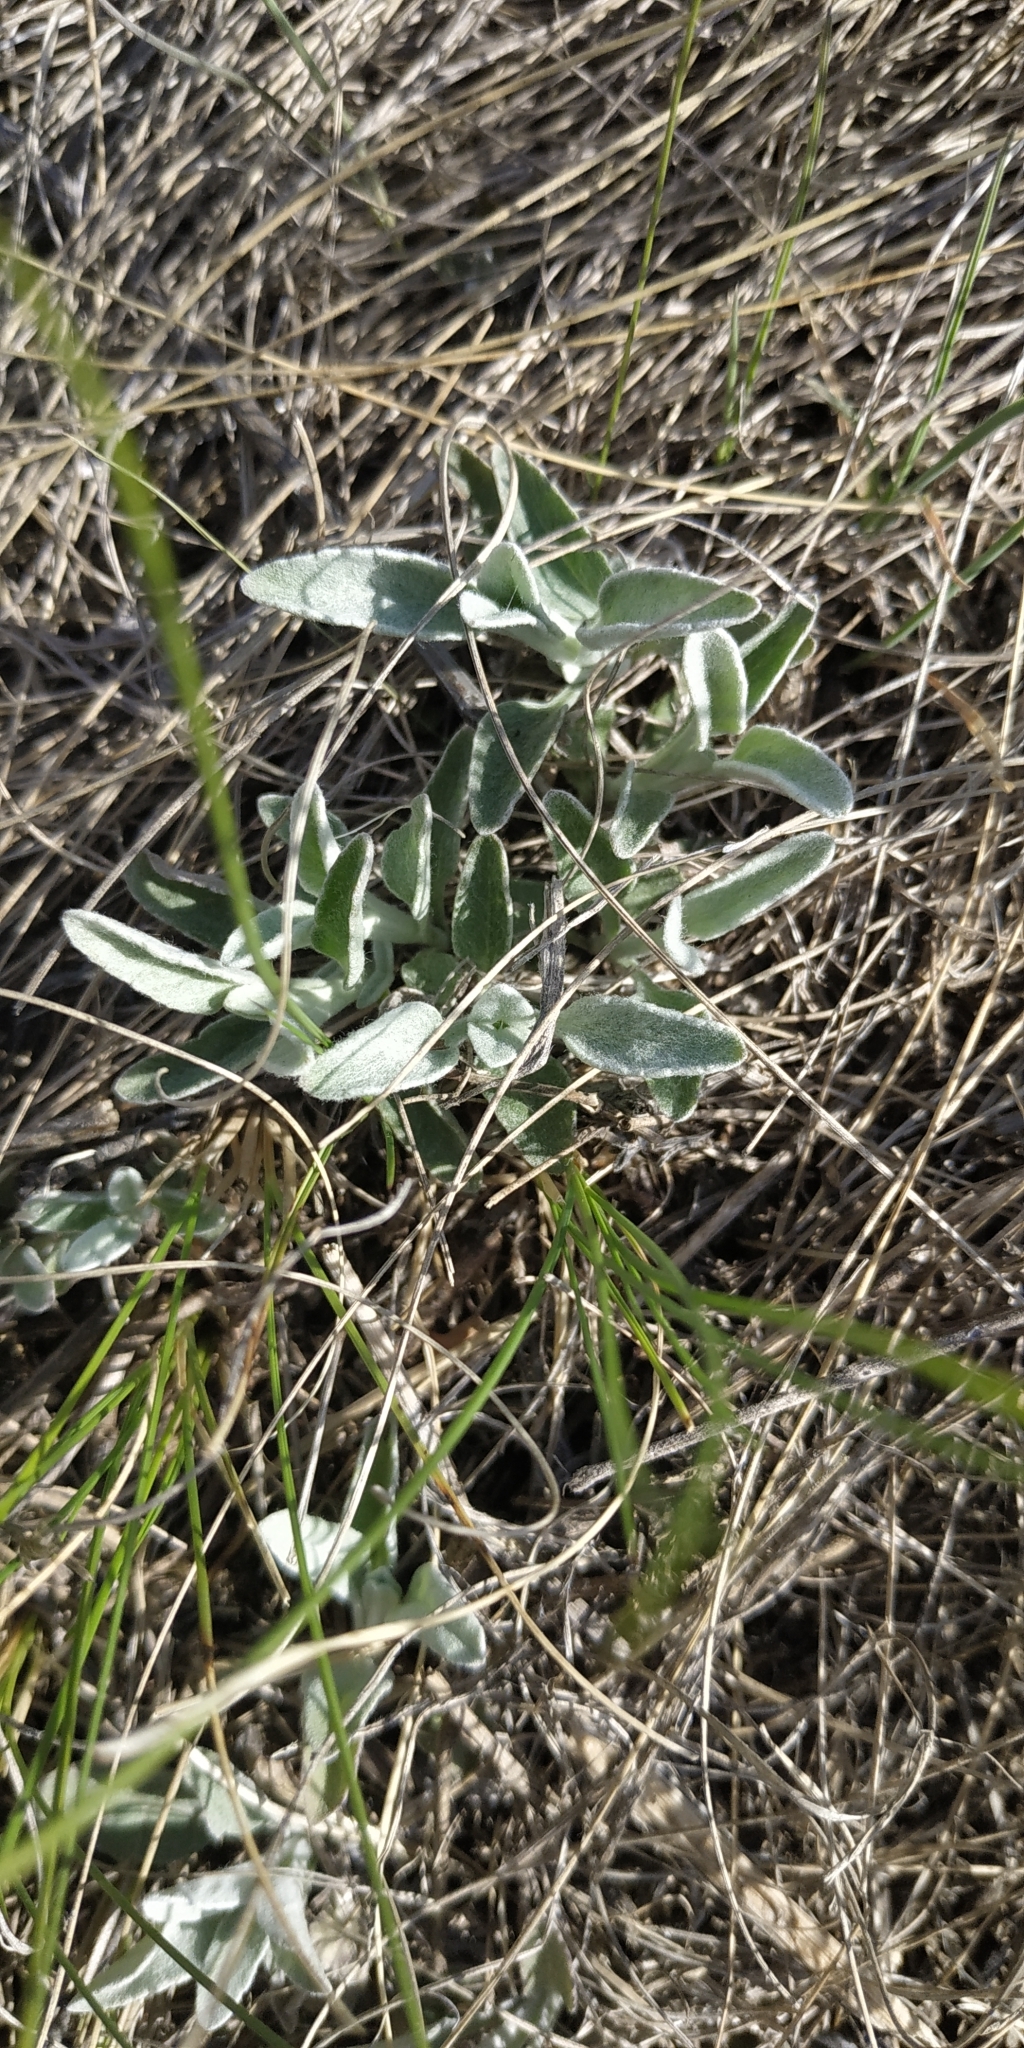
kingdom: Plantae
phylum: Tracheophyta
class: Magnoliopsida
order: Lamiales
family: Plantaginaceae
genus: Veronica
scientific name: Veronica incana
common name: Silver speedwell
